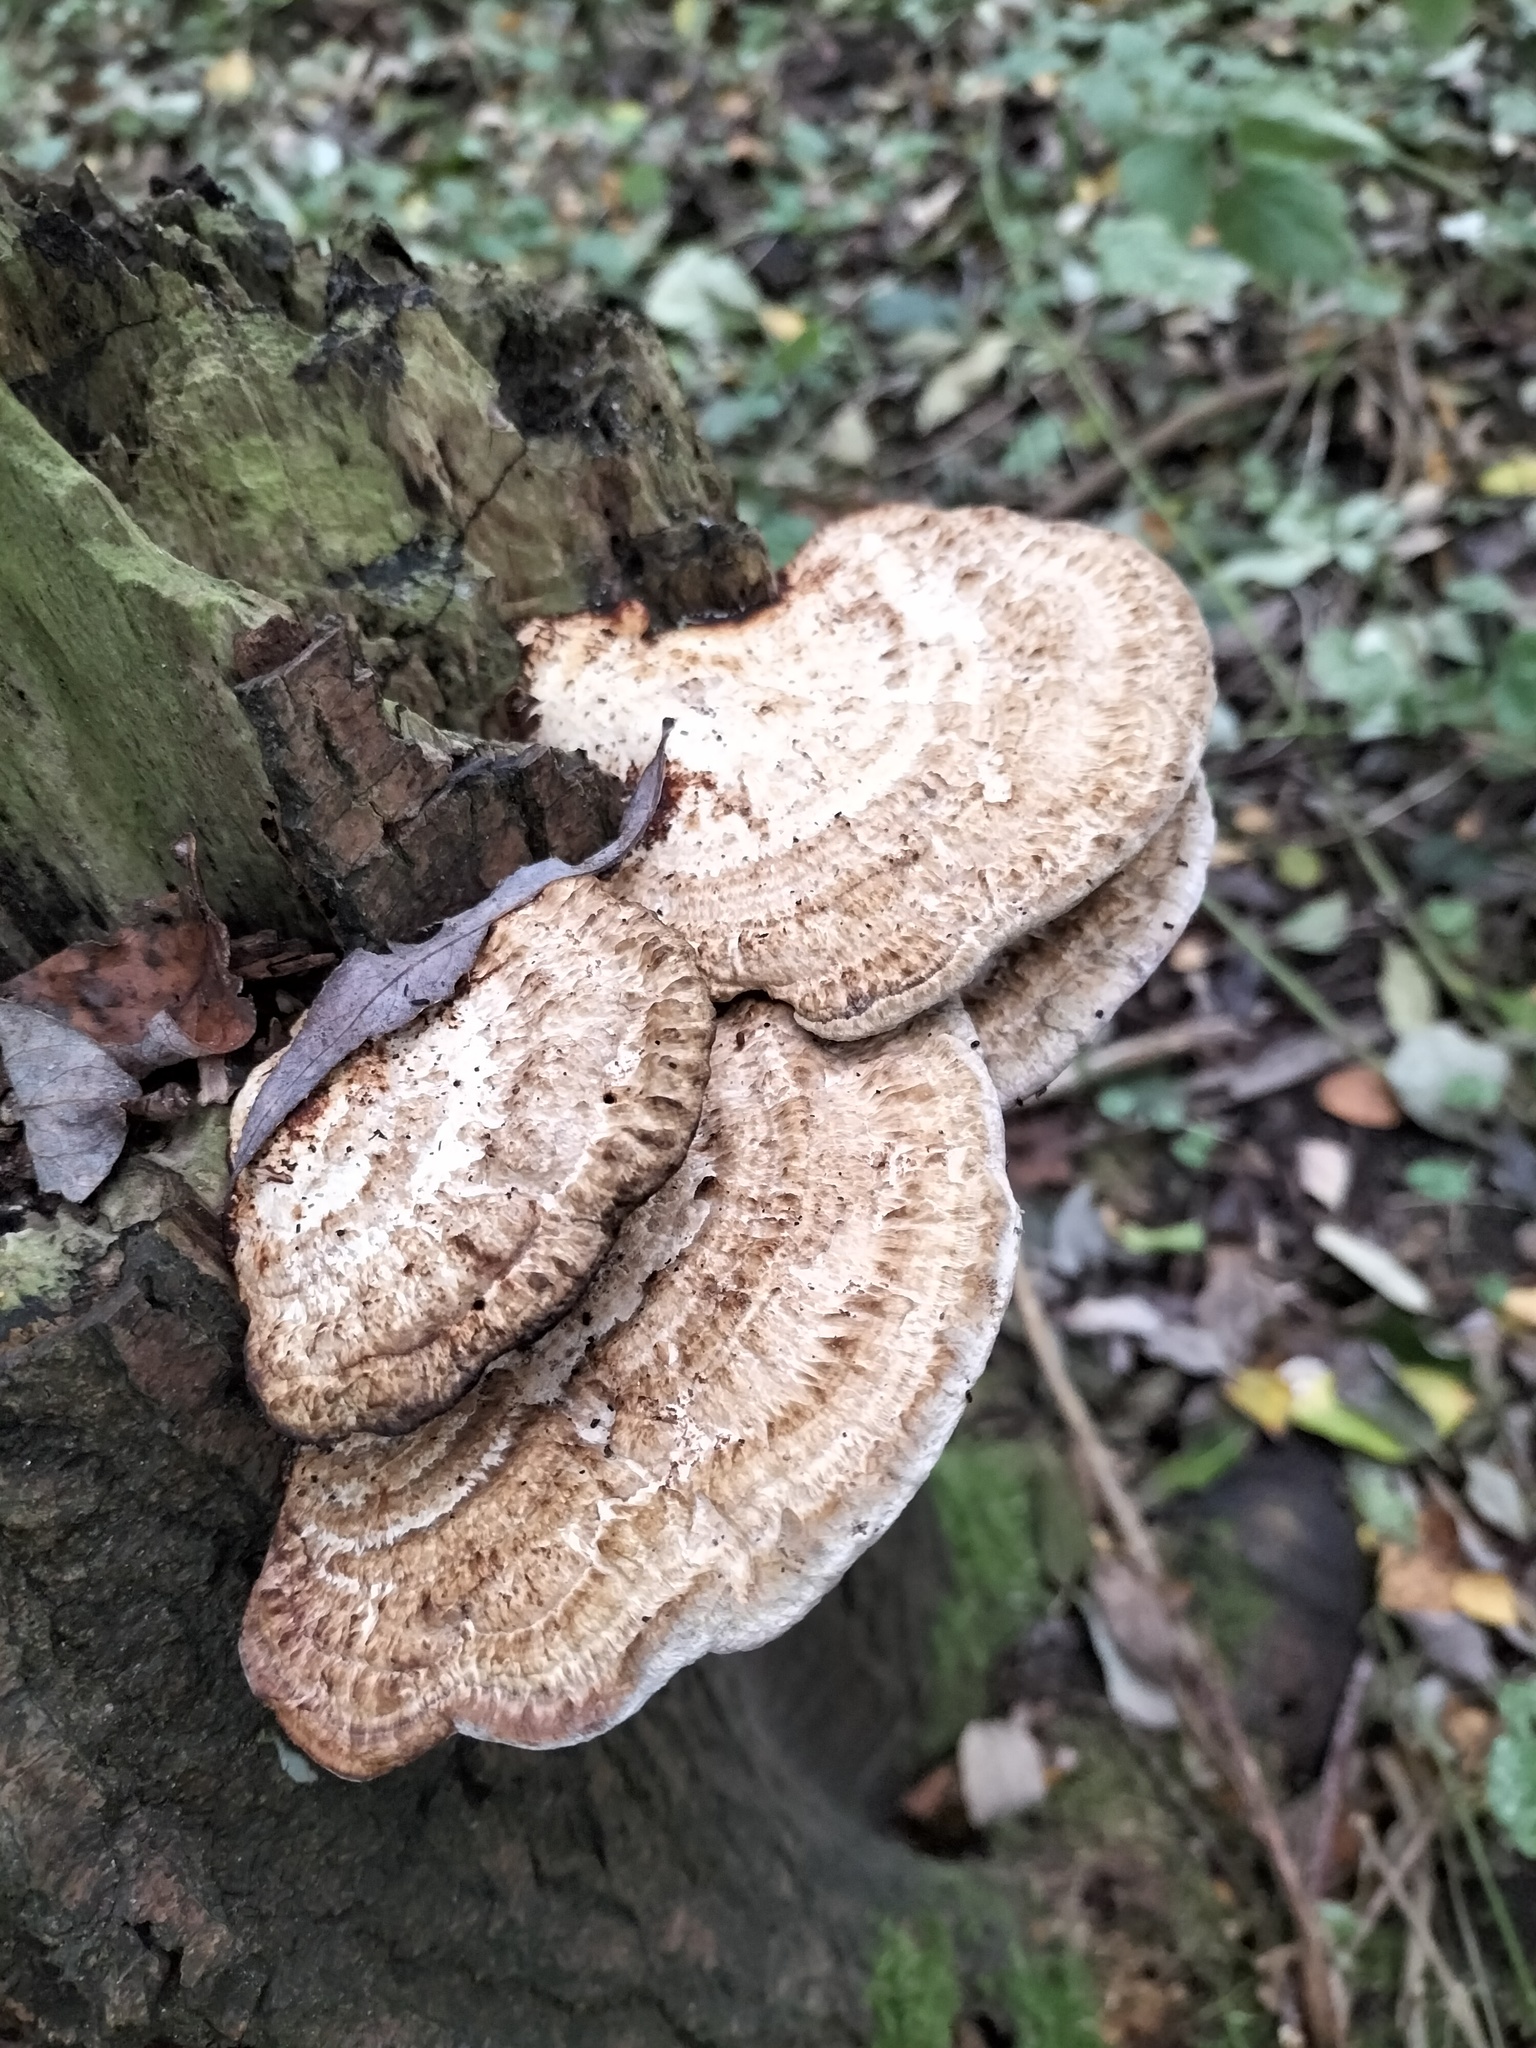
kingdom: Fungi
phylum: Basidiomycota
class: Agaricomycetes
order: Polyporales
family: Fomitopsidaceae
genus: Fomitopsis
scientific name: Fomitopsis
